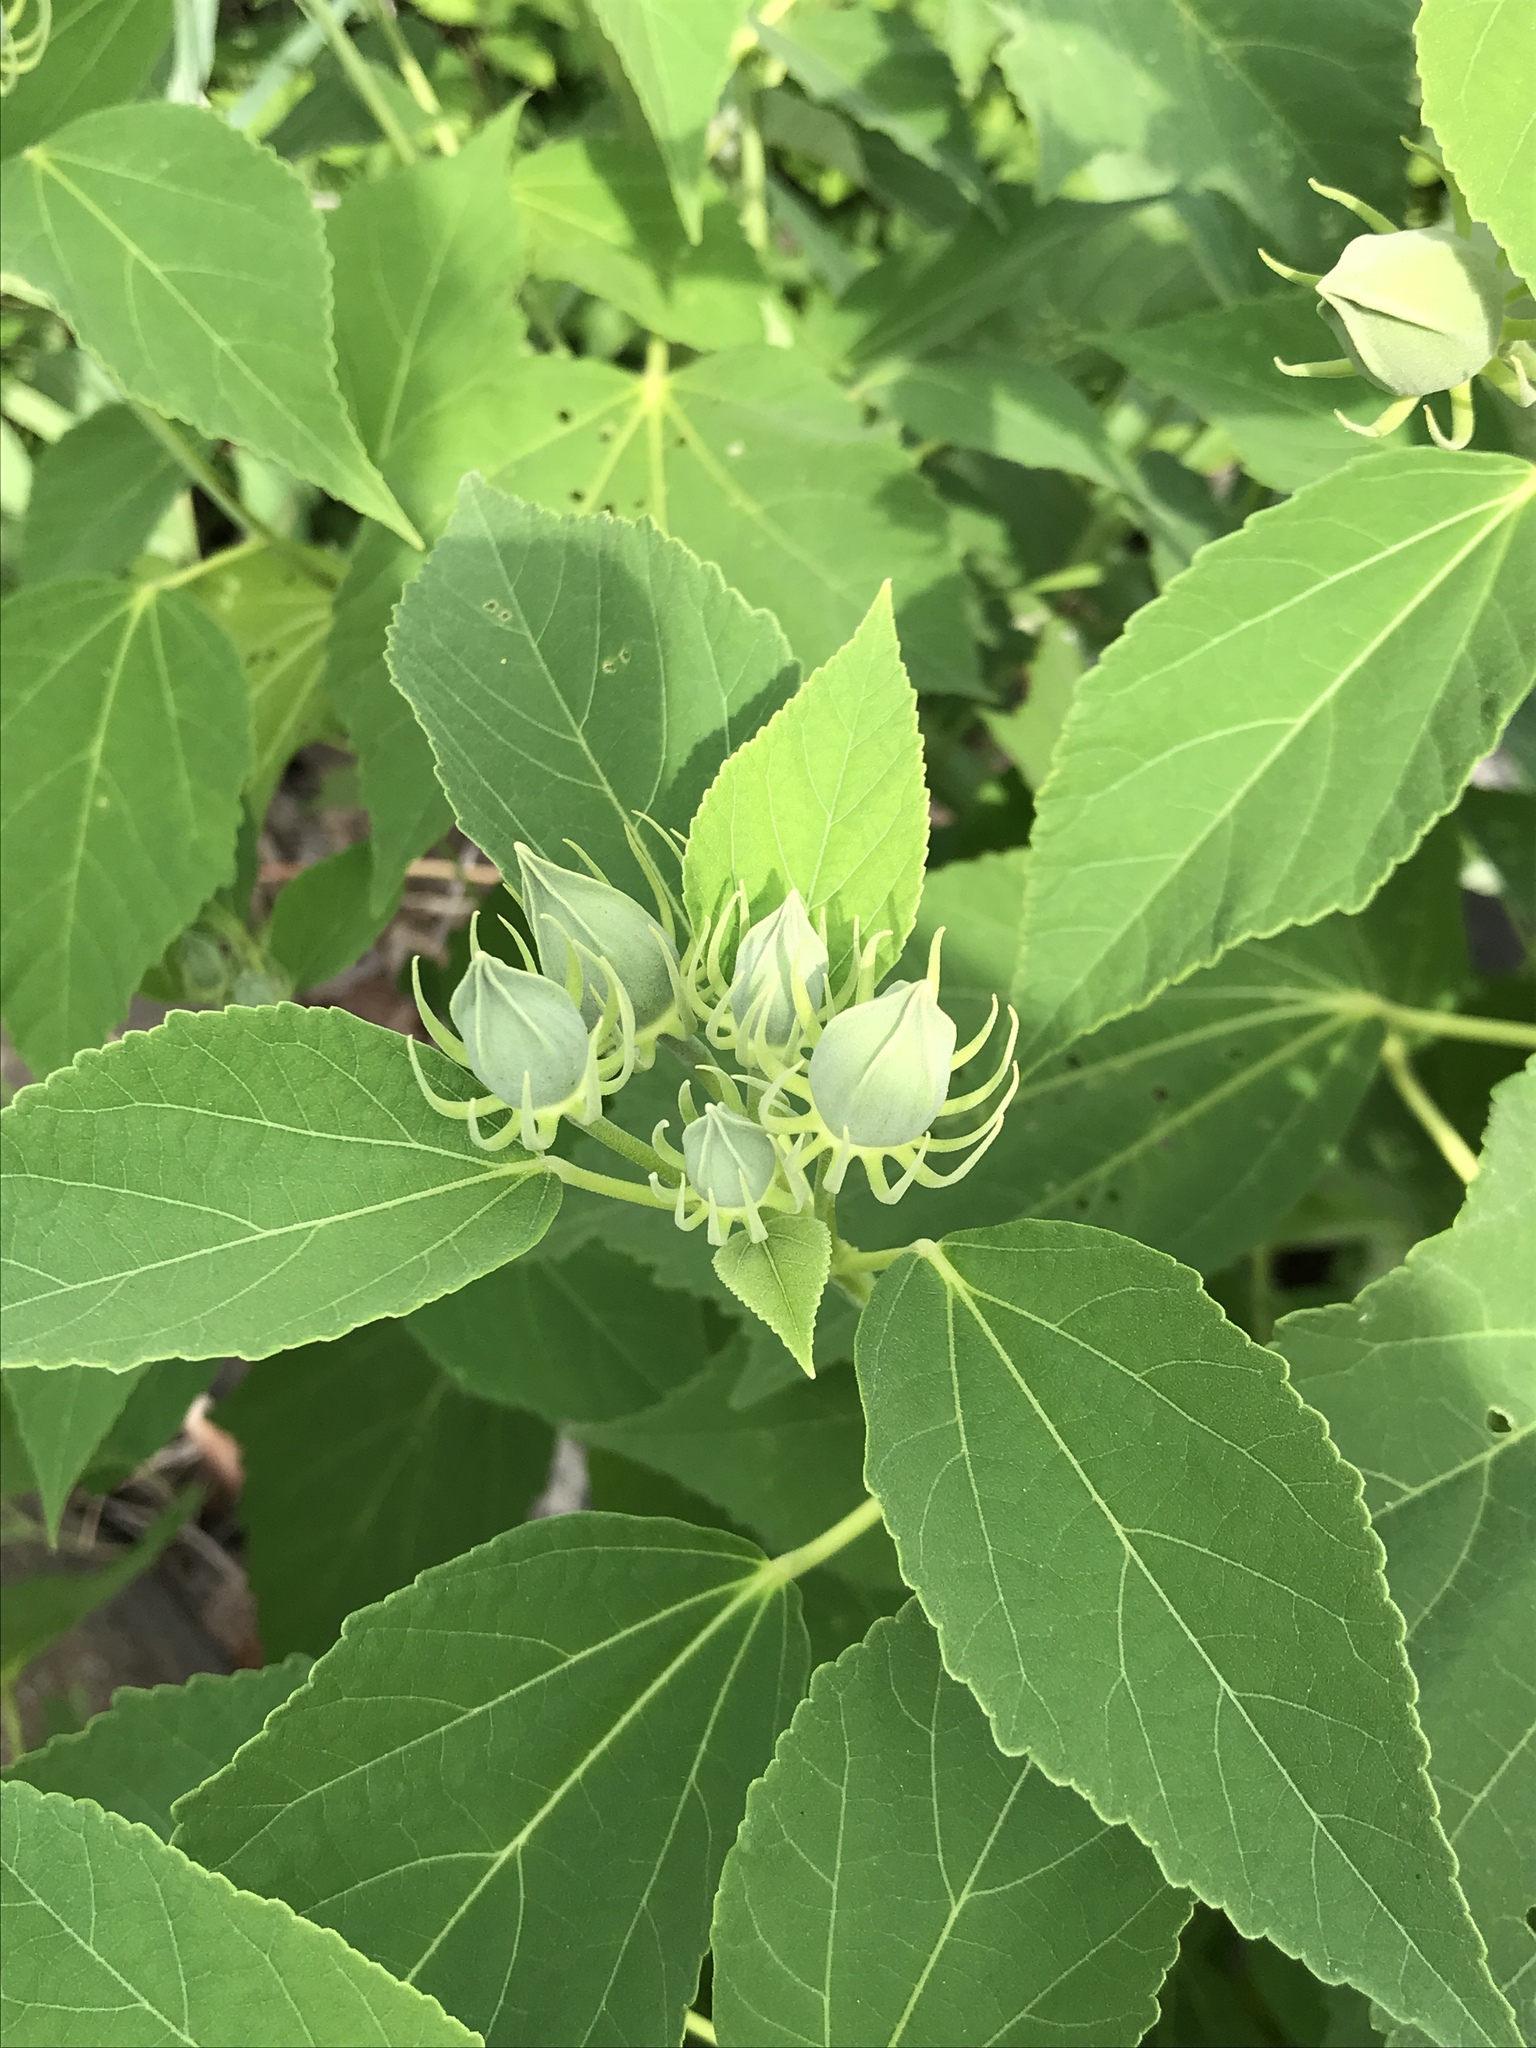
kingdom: Plantae
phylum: Tracheophyta
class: Magnoliopsida
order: Malvales
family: Malvaceae
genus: Hibiscus
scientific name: Hibiscus moscheutos
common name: Common rose-mallow
